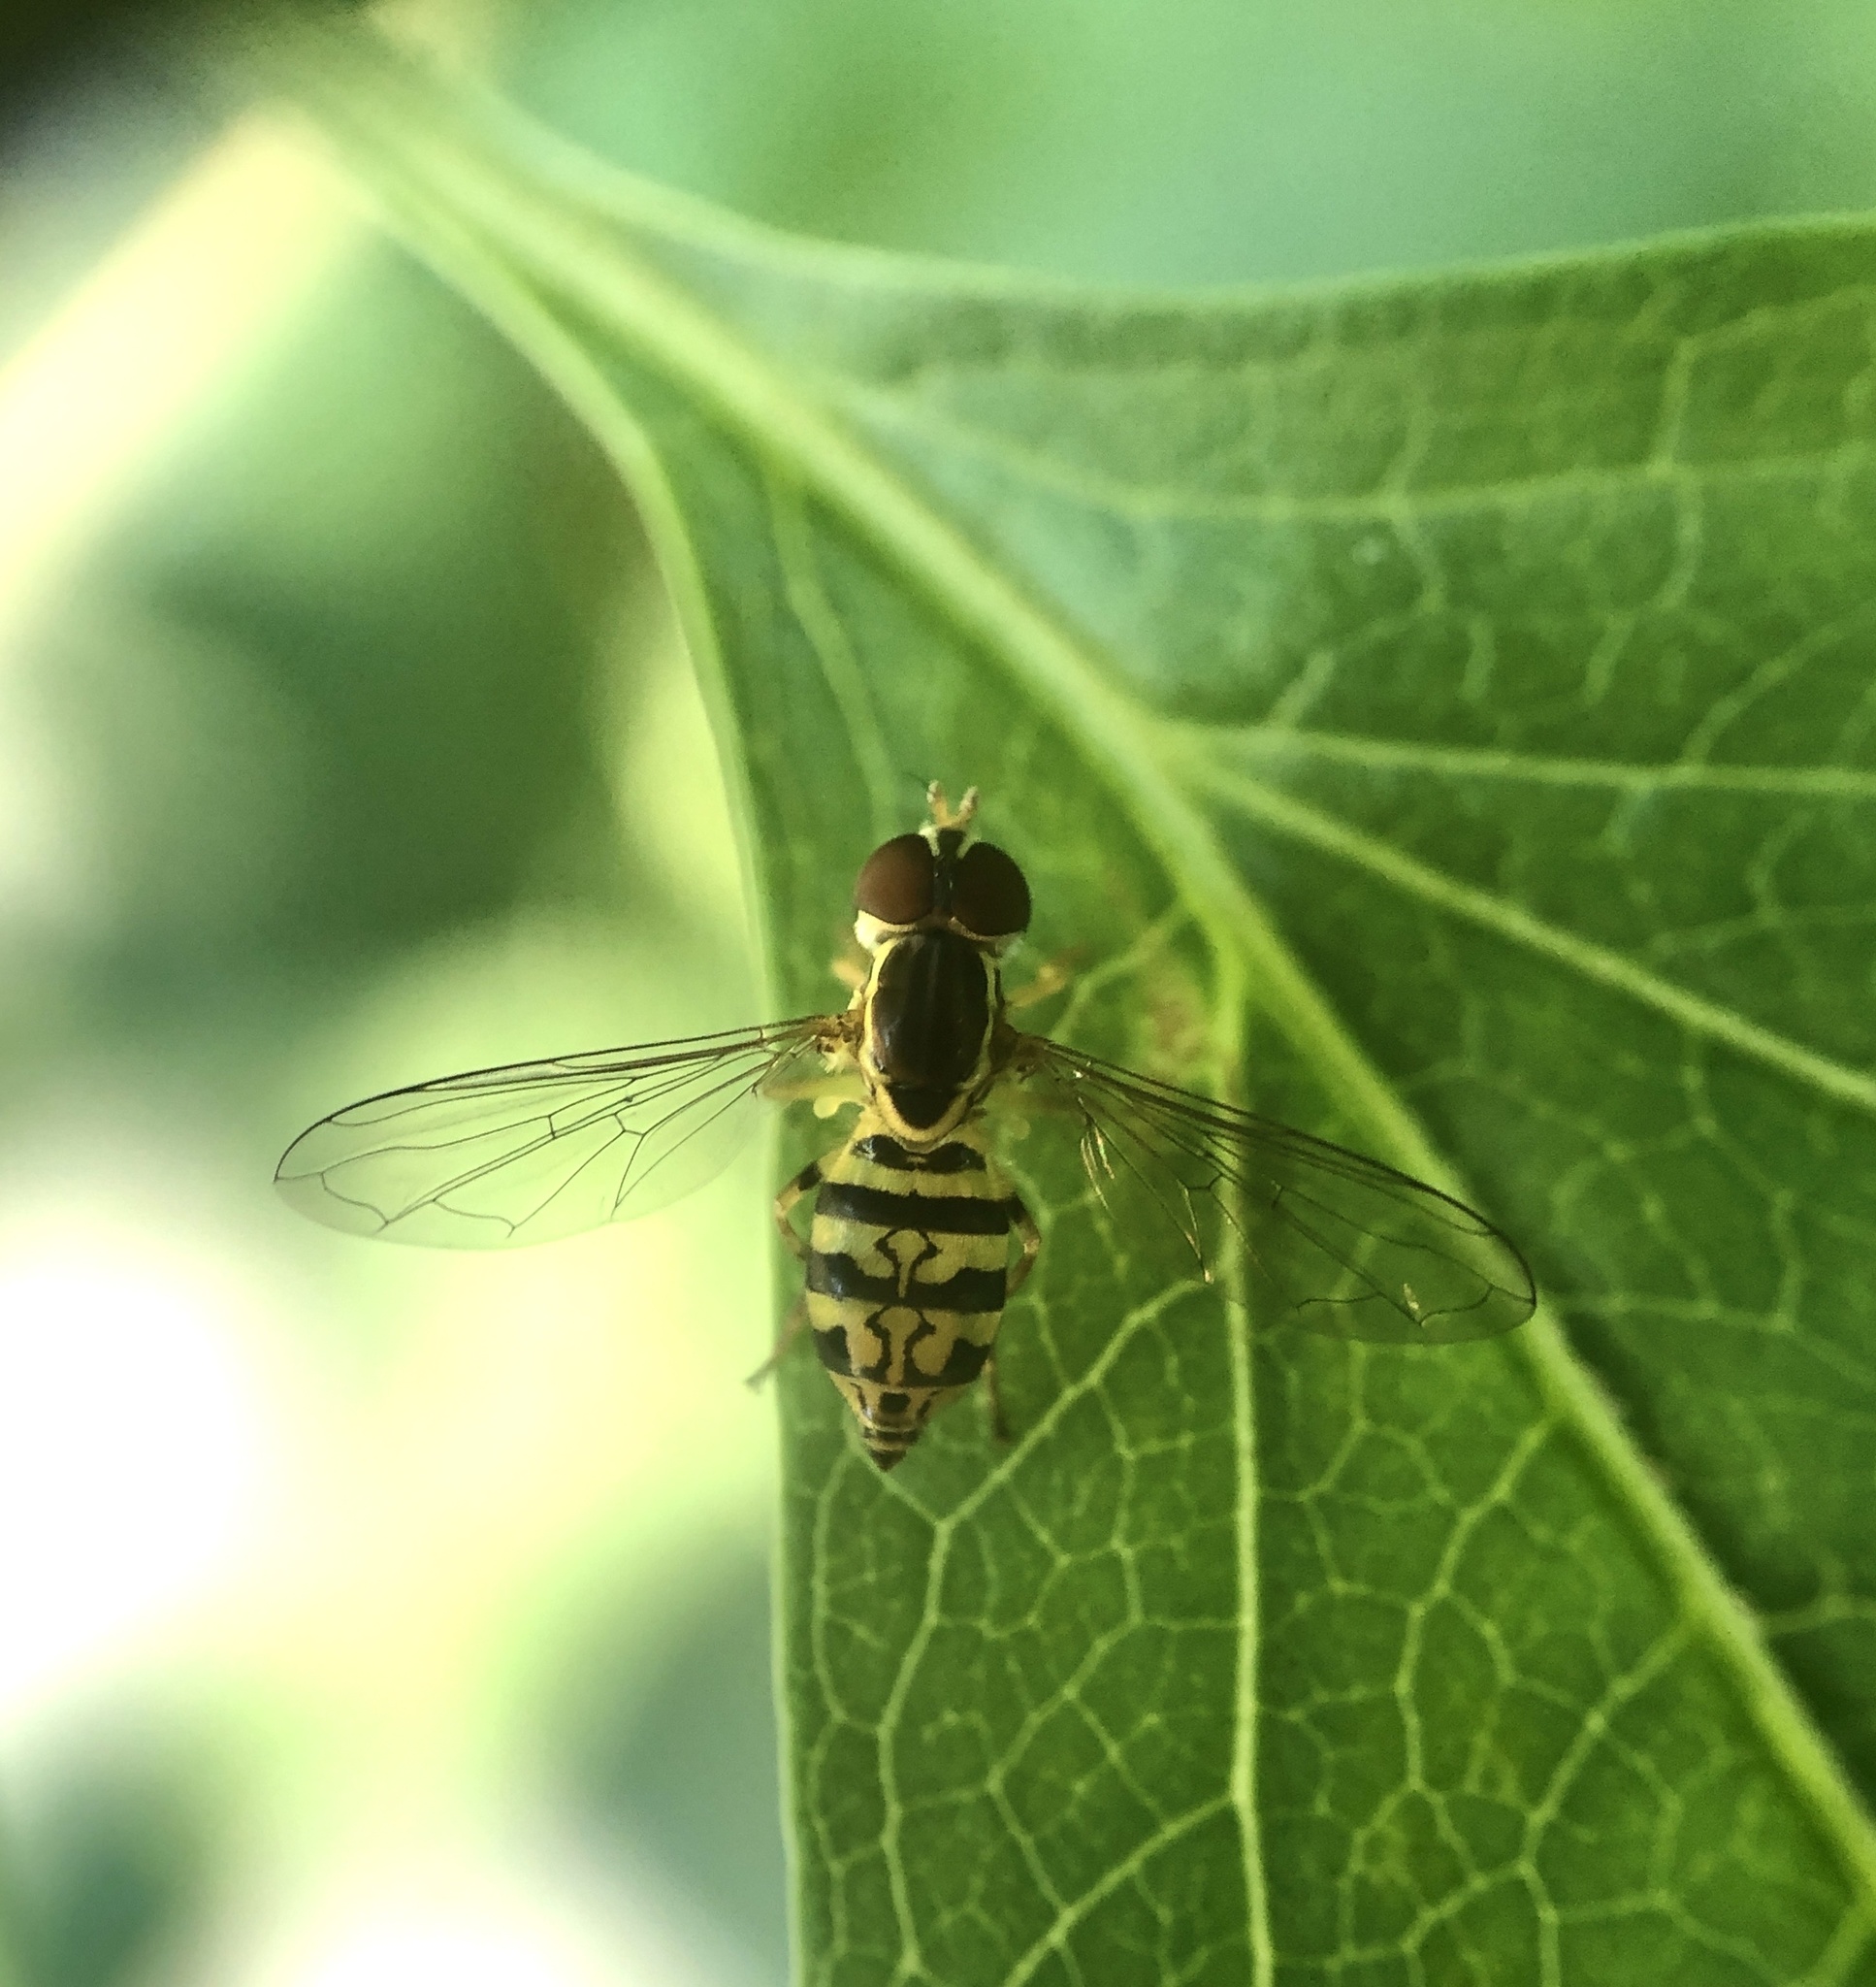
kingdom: Animalia
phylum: Arthropoda
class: Insecta
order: Diptera
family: Syrphidae
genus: Toxomerus
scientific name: Toxomerus geminatus
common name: Eastern calligrapher
